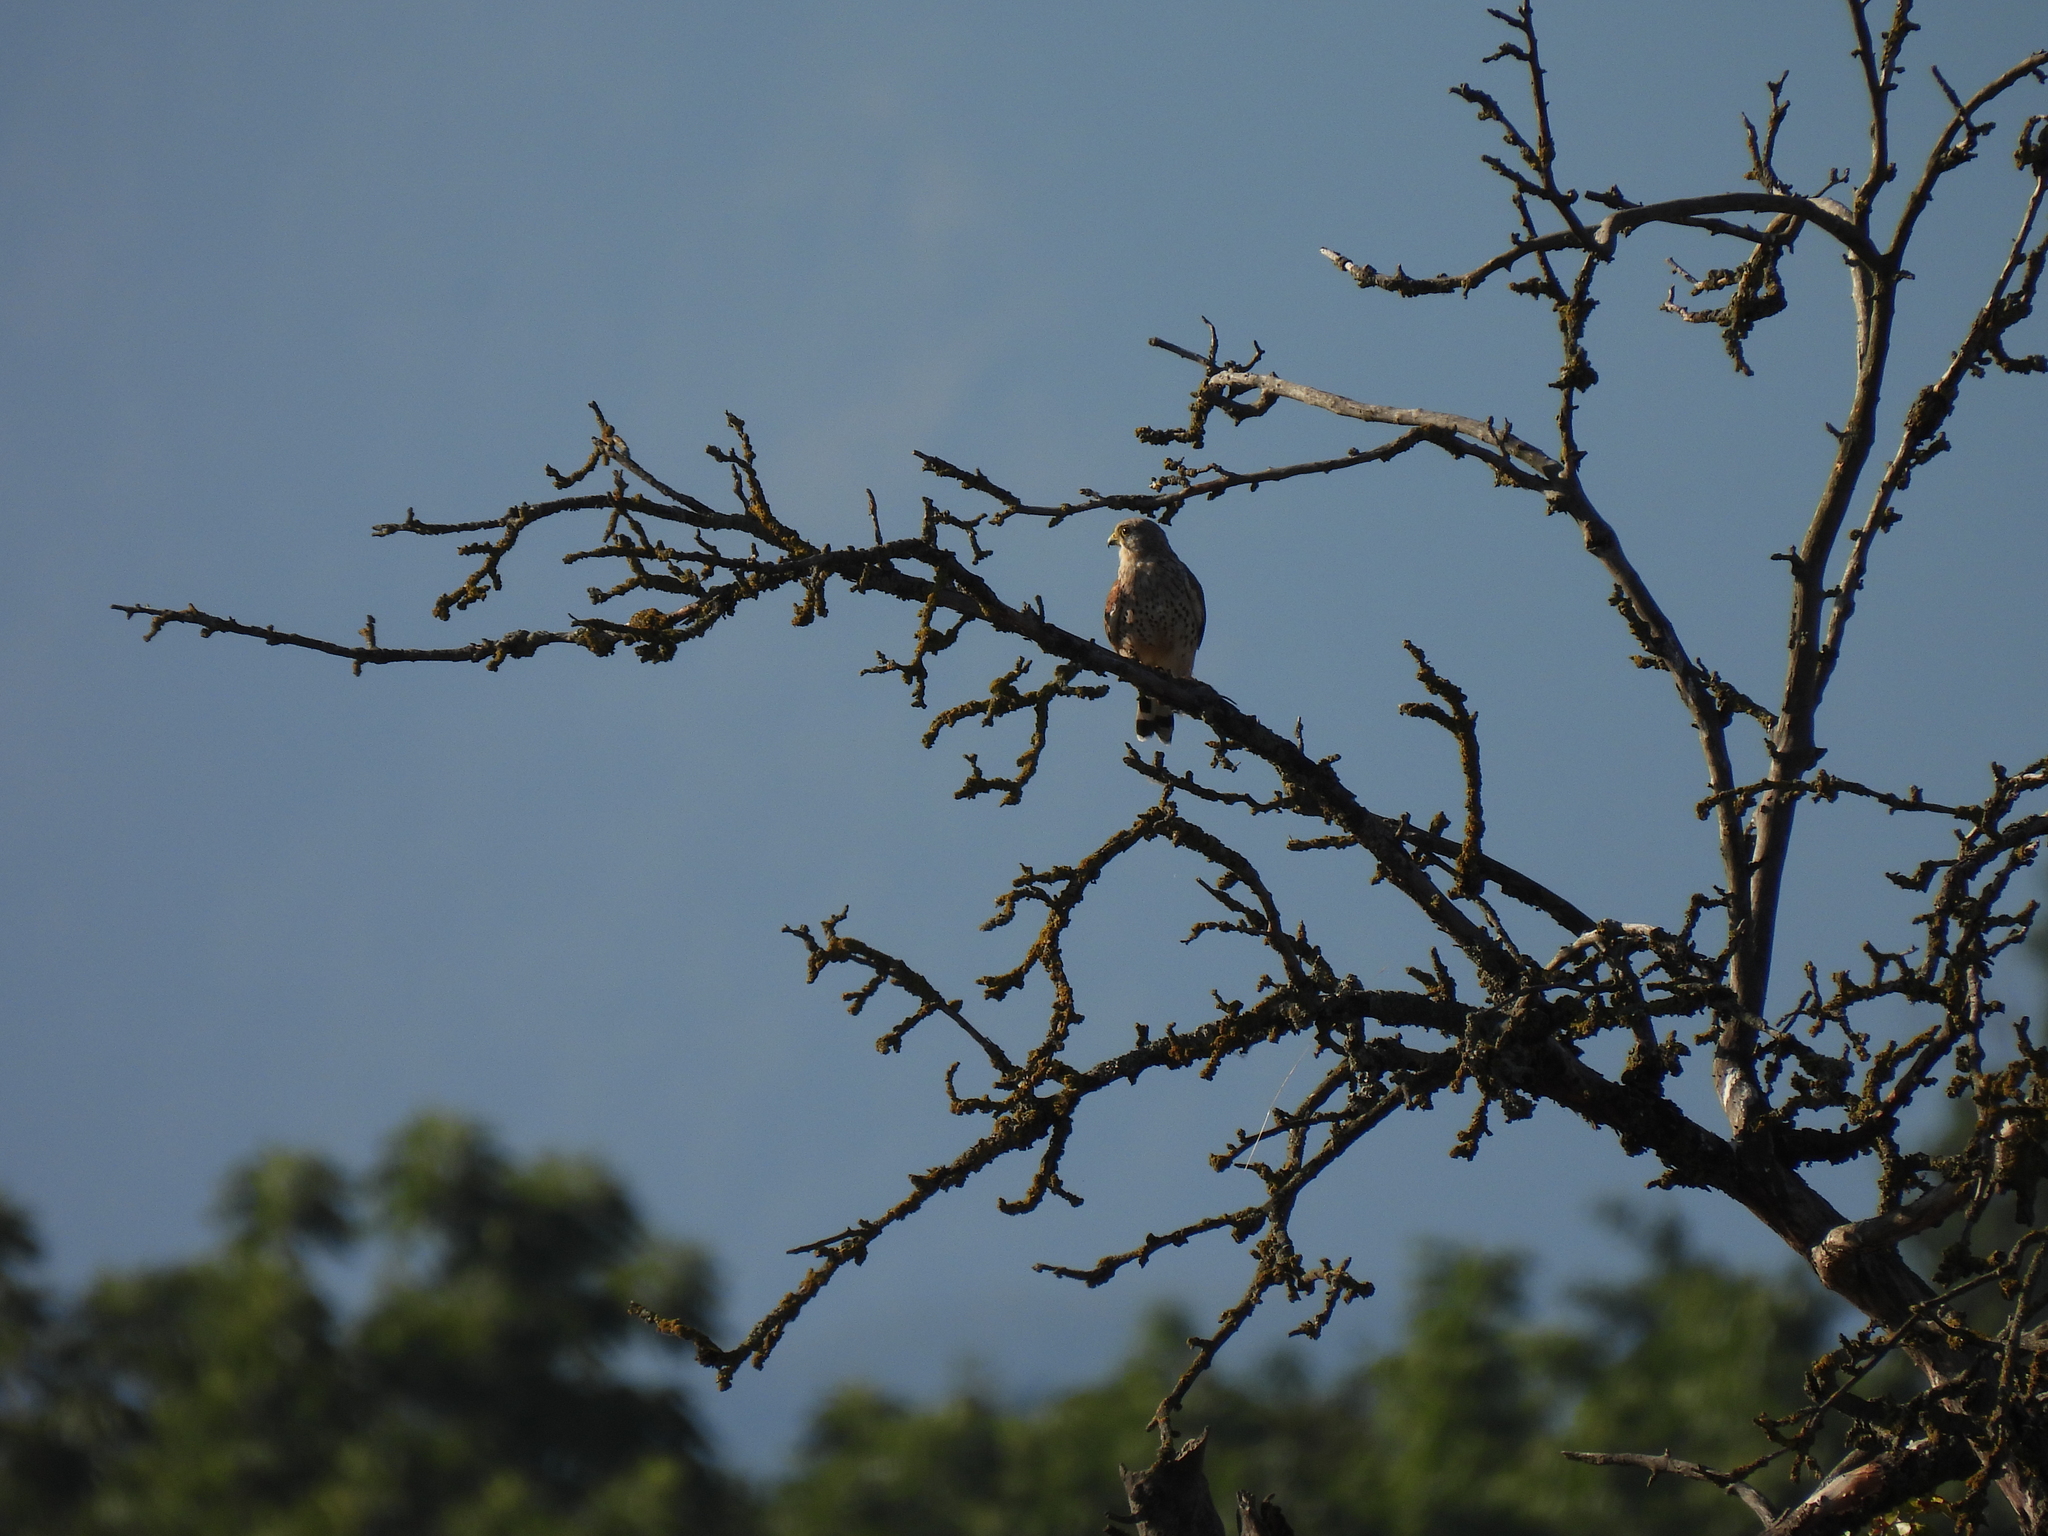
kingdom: Animalia
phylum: Chordata
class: Aves
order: Falconiformes
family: Falconidae
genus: Falco
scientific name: Falco tinnunculus
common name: Common kestrel
